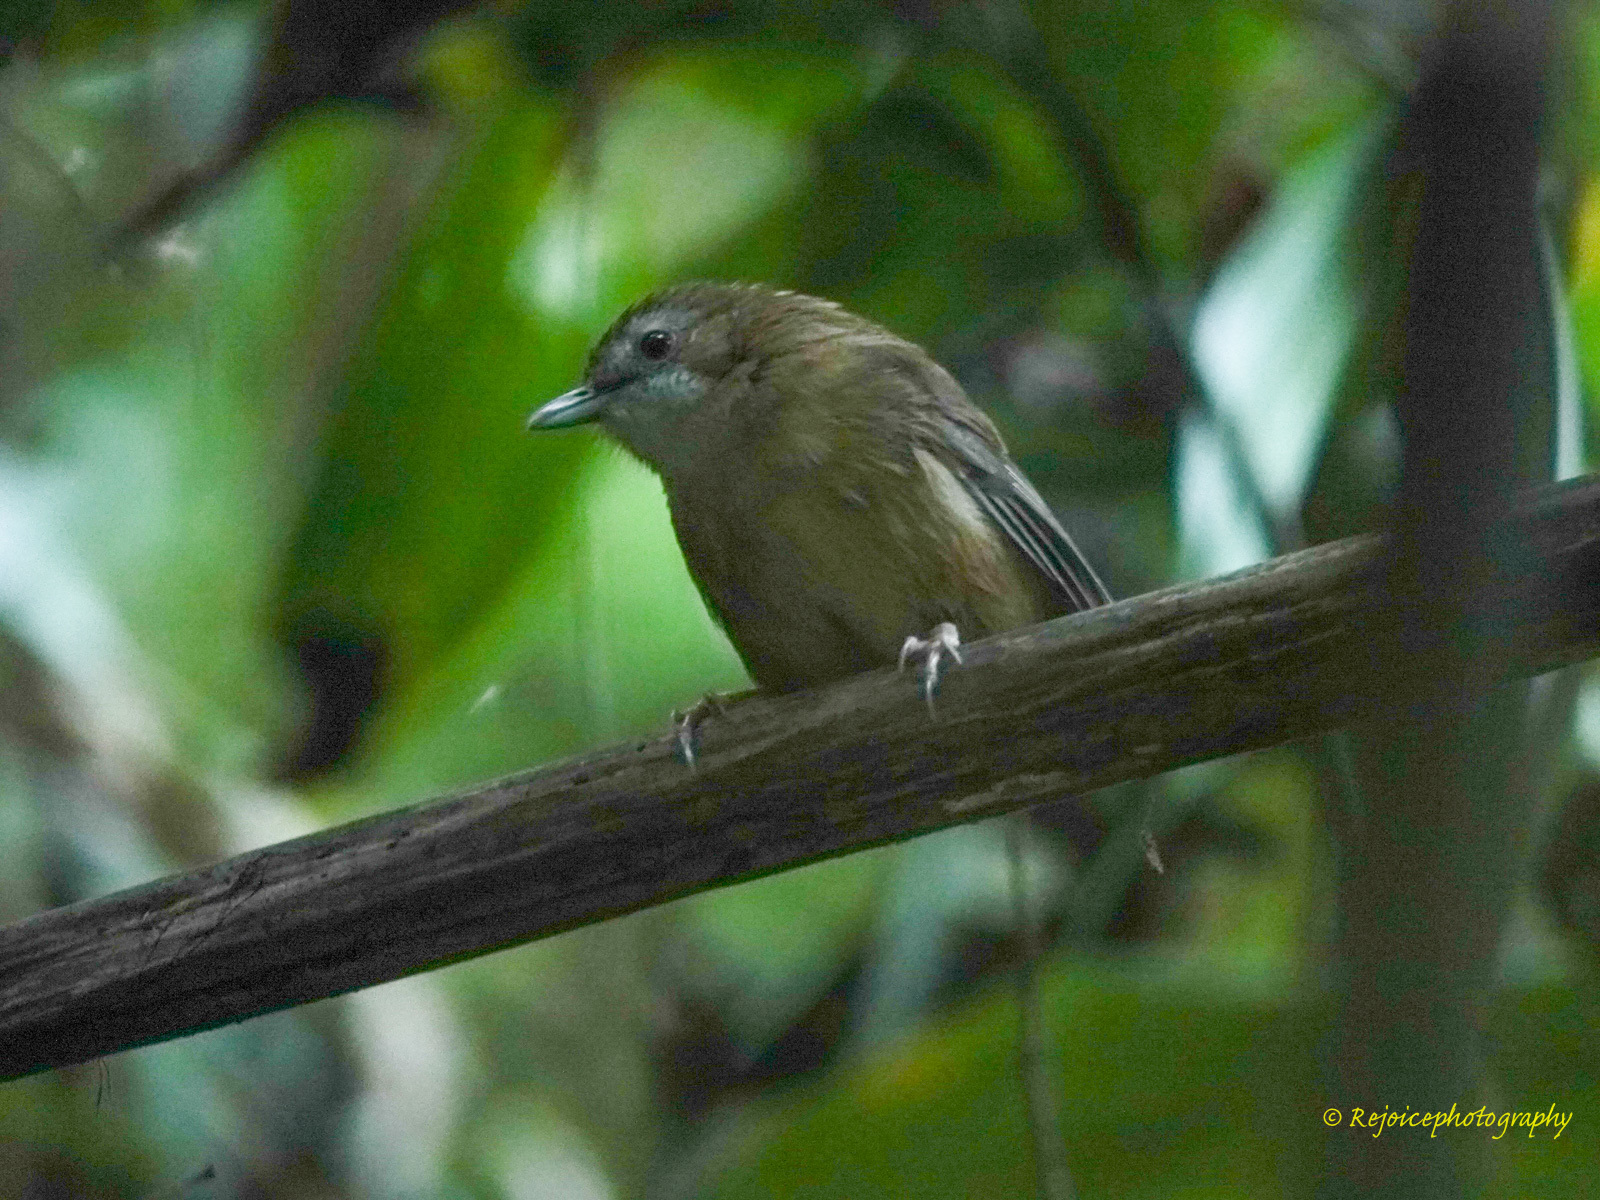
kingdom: Animalia
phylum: Chordata
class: Aves
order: Passeriformes
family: Pellorneidae
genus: Malacocincla
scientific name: Malacocincla abbotti
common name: Abbott's babbler
